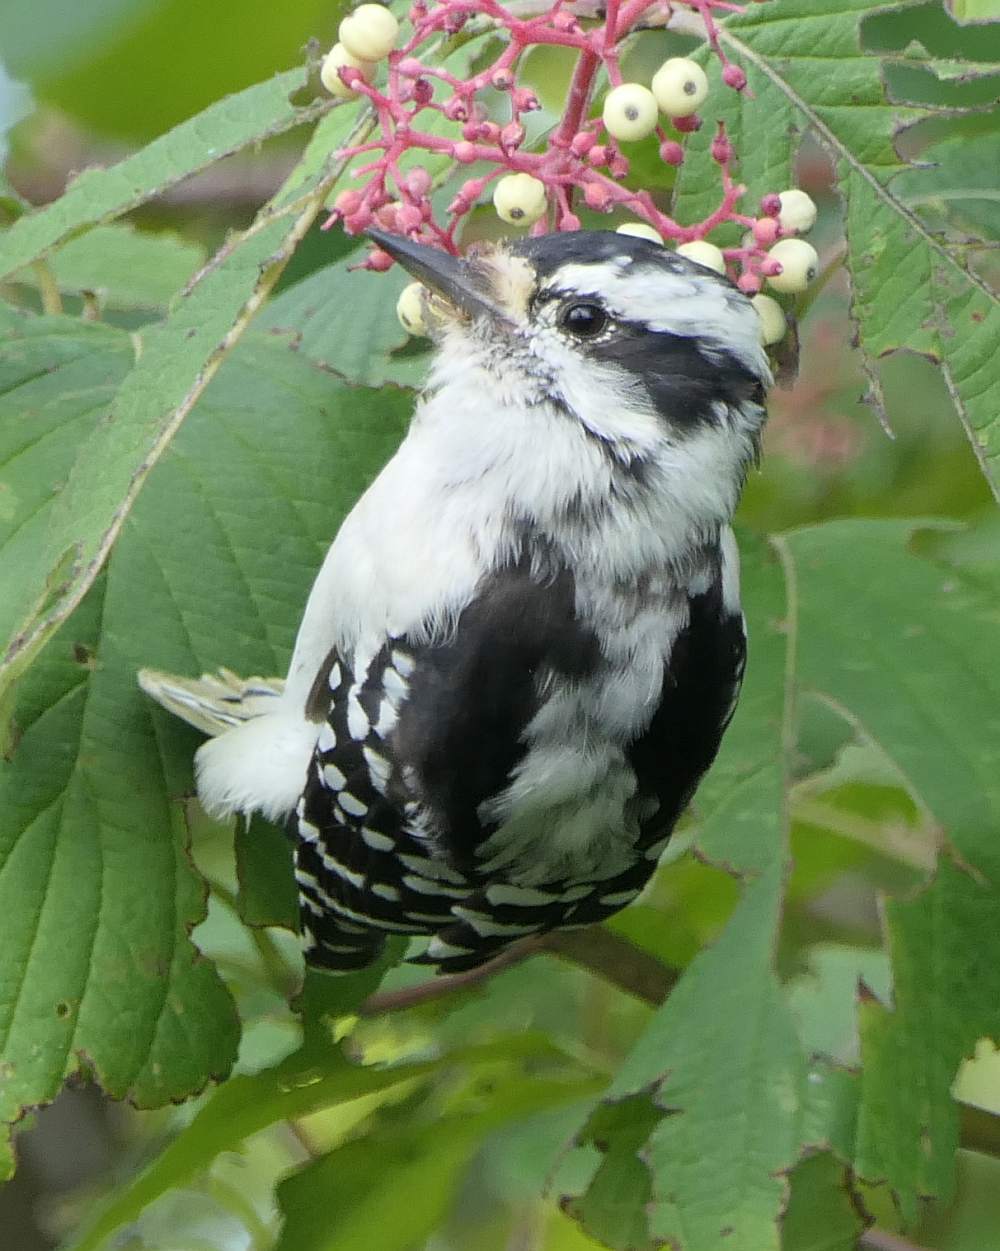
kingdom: Animalia
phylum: Chordata
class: Aves
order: Piciformes
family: Picidae
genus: Dryobates
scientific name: Dryobates pubescens
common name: Downy woodpecker
